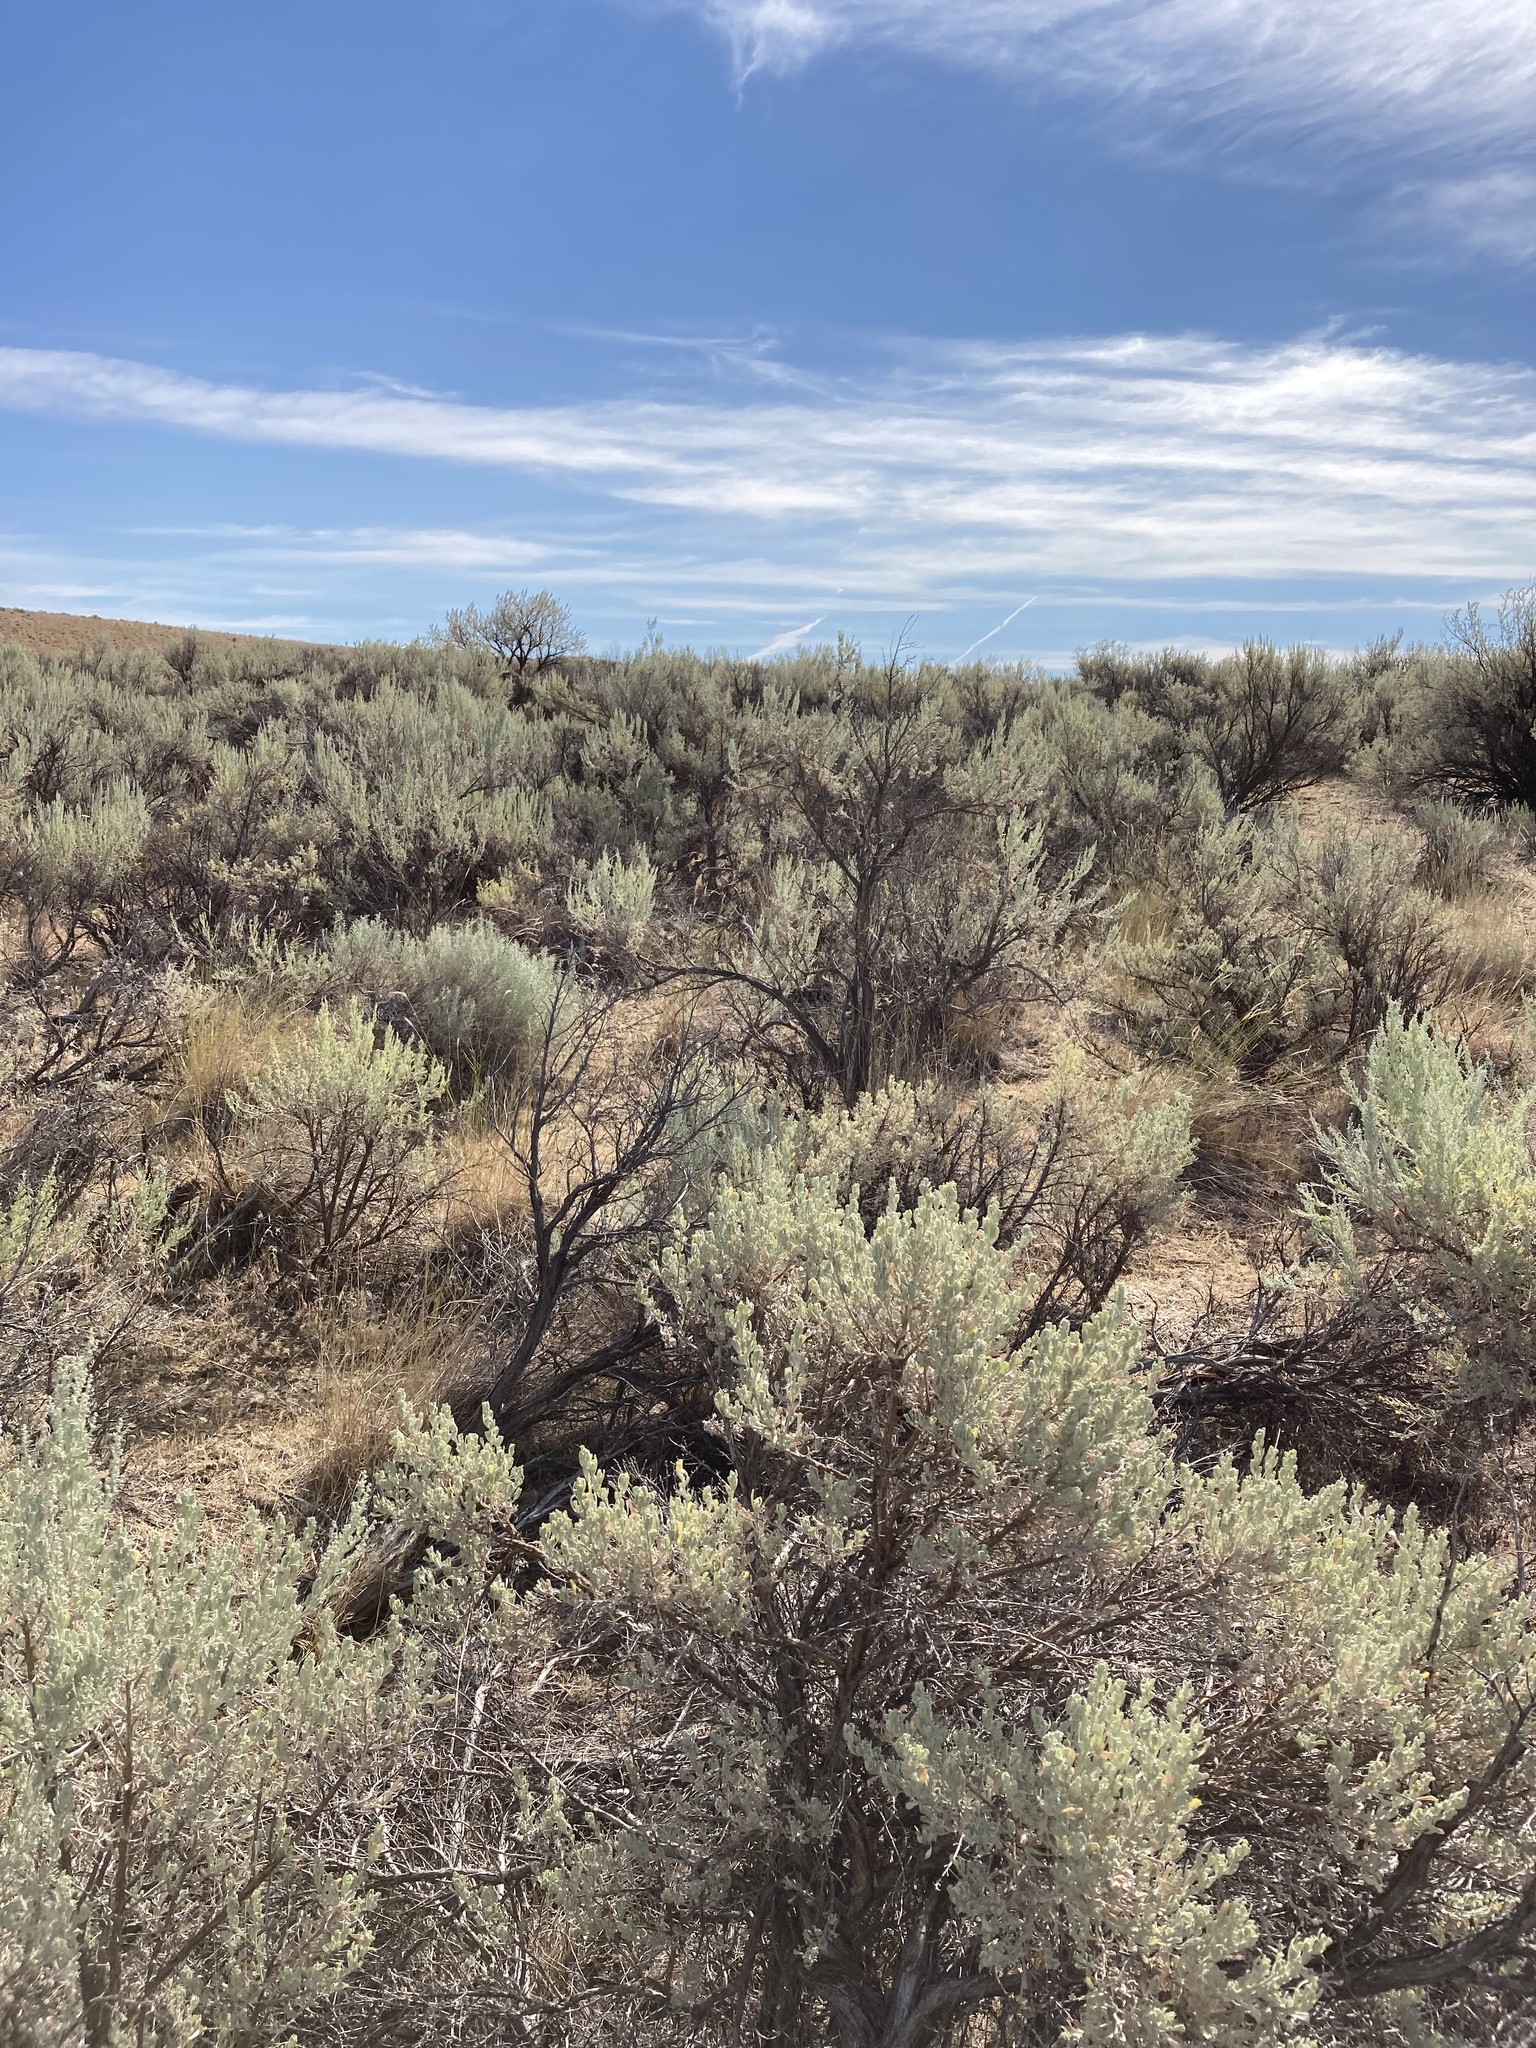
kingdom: Plantae
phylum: Tracheophyta
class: Magnoliopsida
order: Asterales
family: Asteraceae
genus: Artemisia
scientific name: Artemisia tridentata
